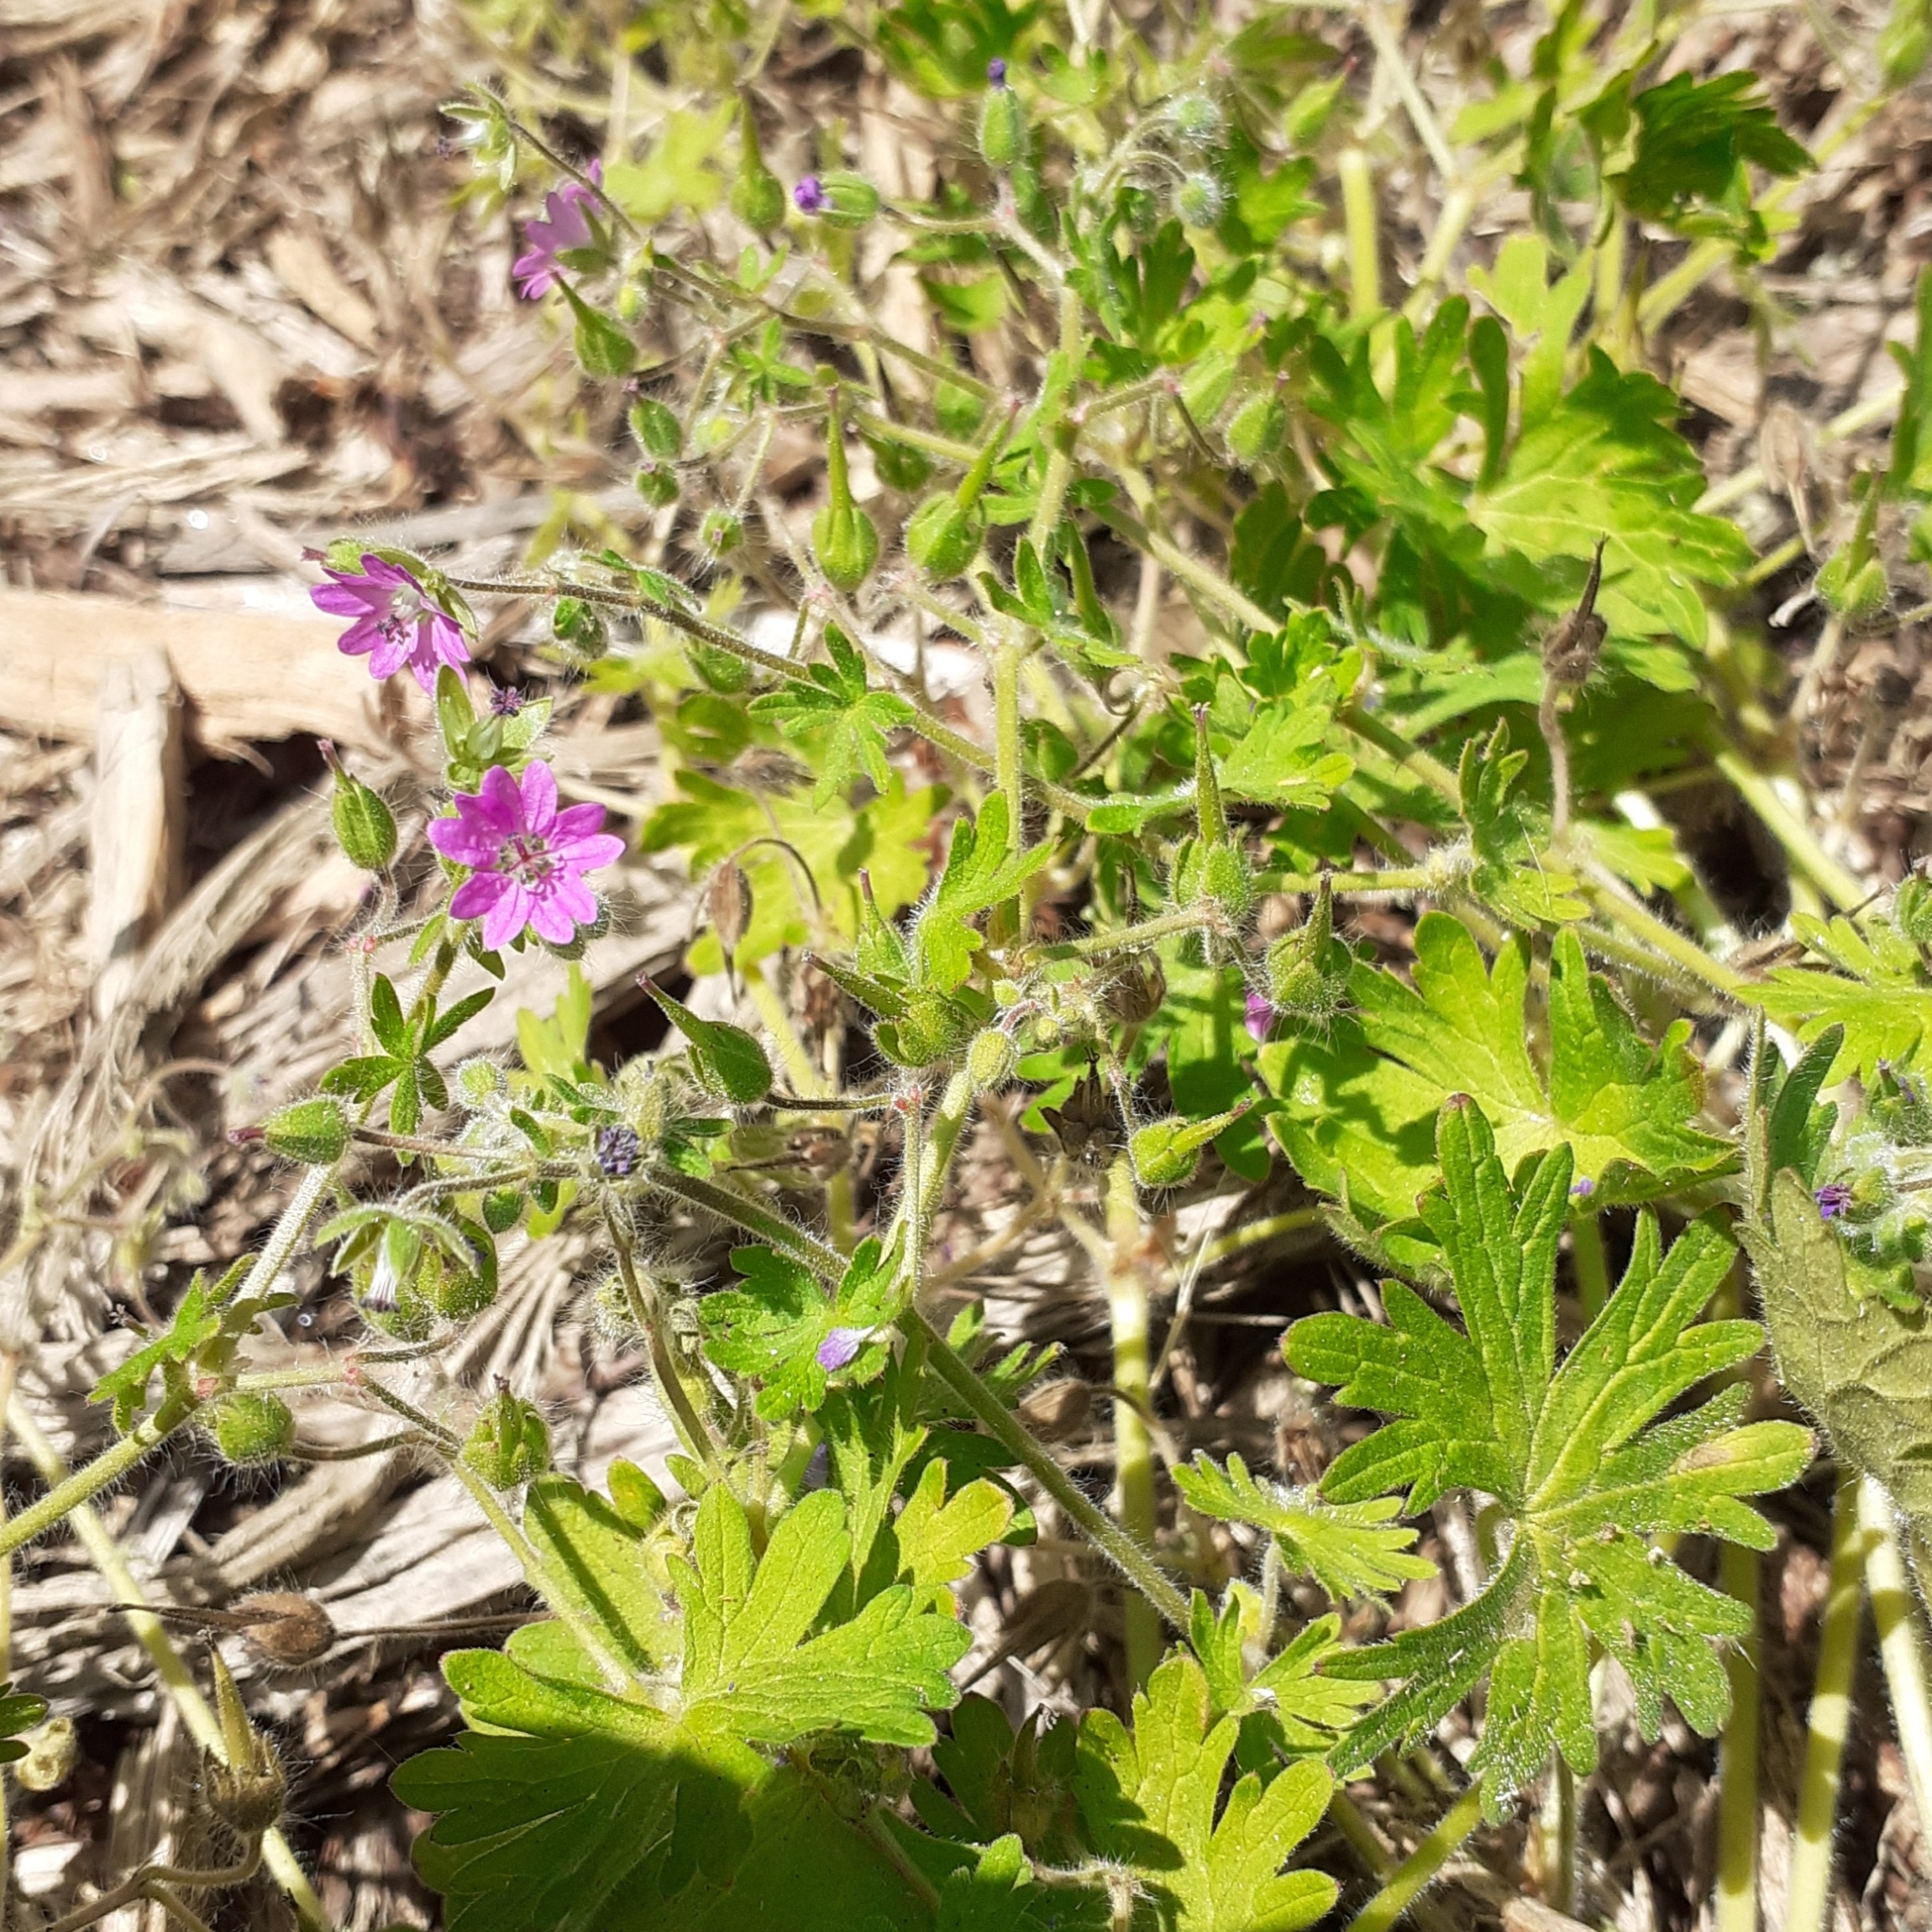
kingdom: Plantae
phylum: Tracheophyta
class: Magnoliopsida
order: Geraniales
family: Geraniaceae
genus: Geranium
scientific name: Geranium molle
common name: Dove's-foot crane's-bill
